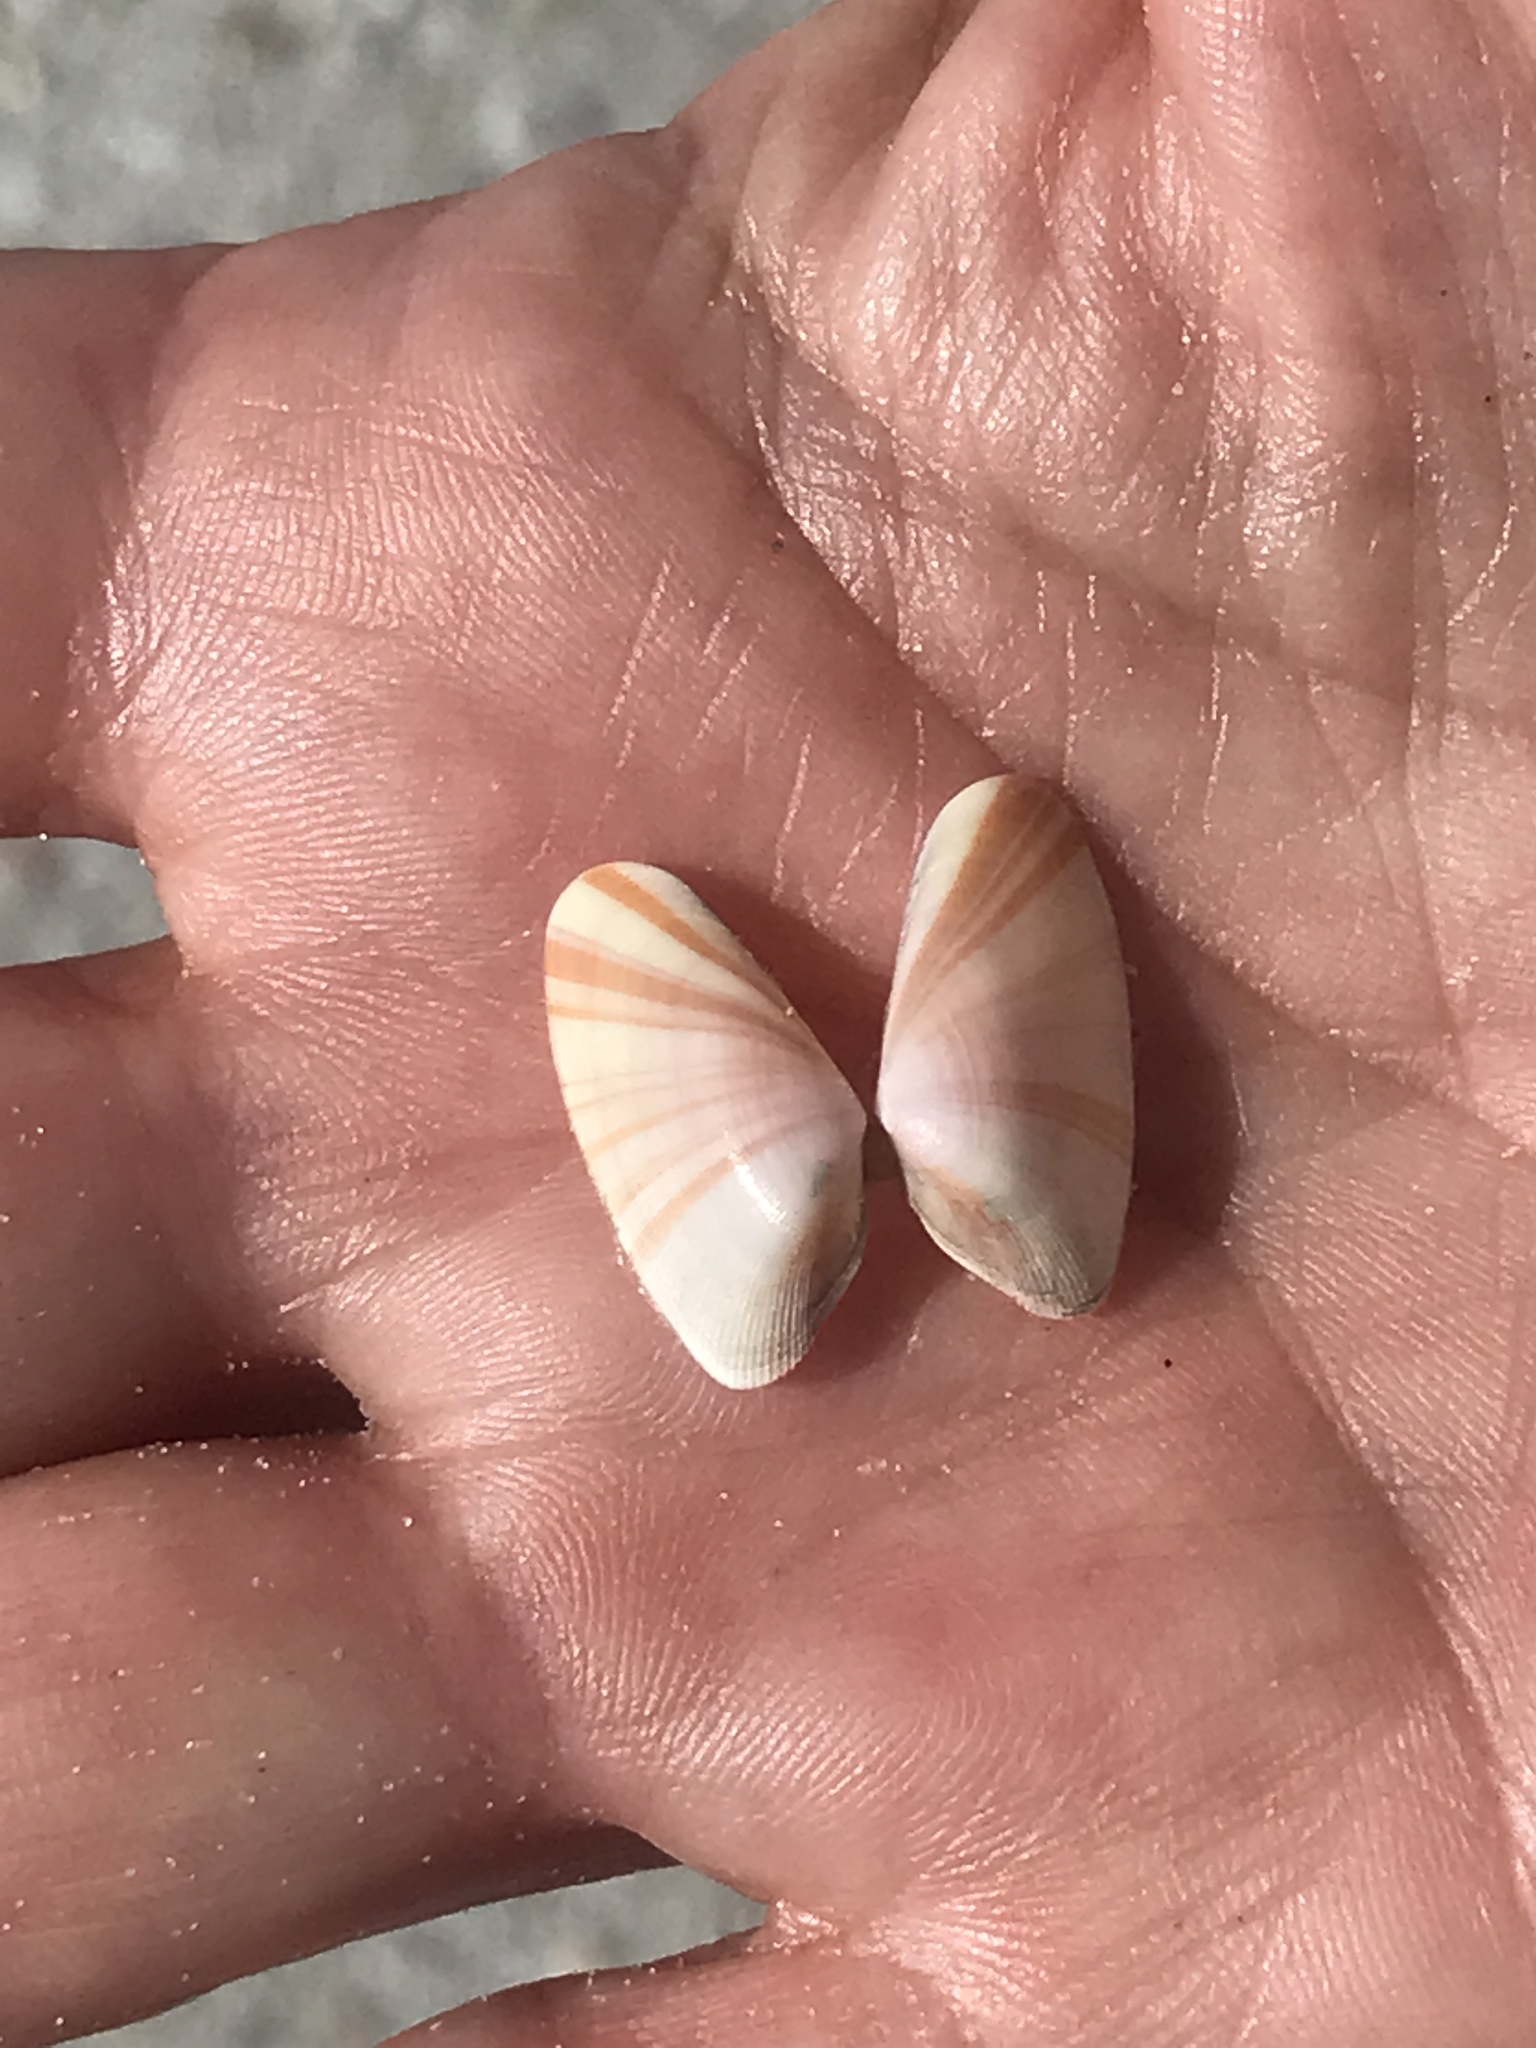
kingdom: Animalia
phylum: Mollusca
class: Bivalvia
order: Cardiida
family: Donacidae
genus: Donax
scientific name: Donax variabilis
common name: Butterfly shell
